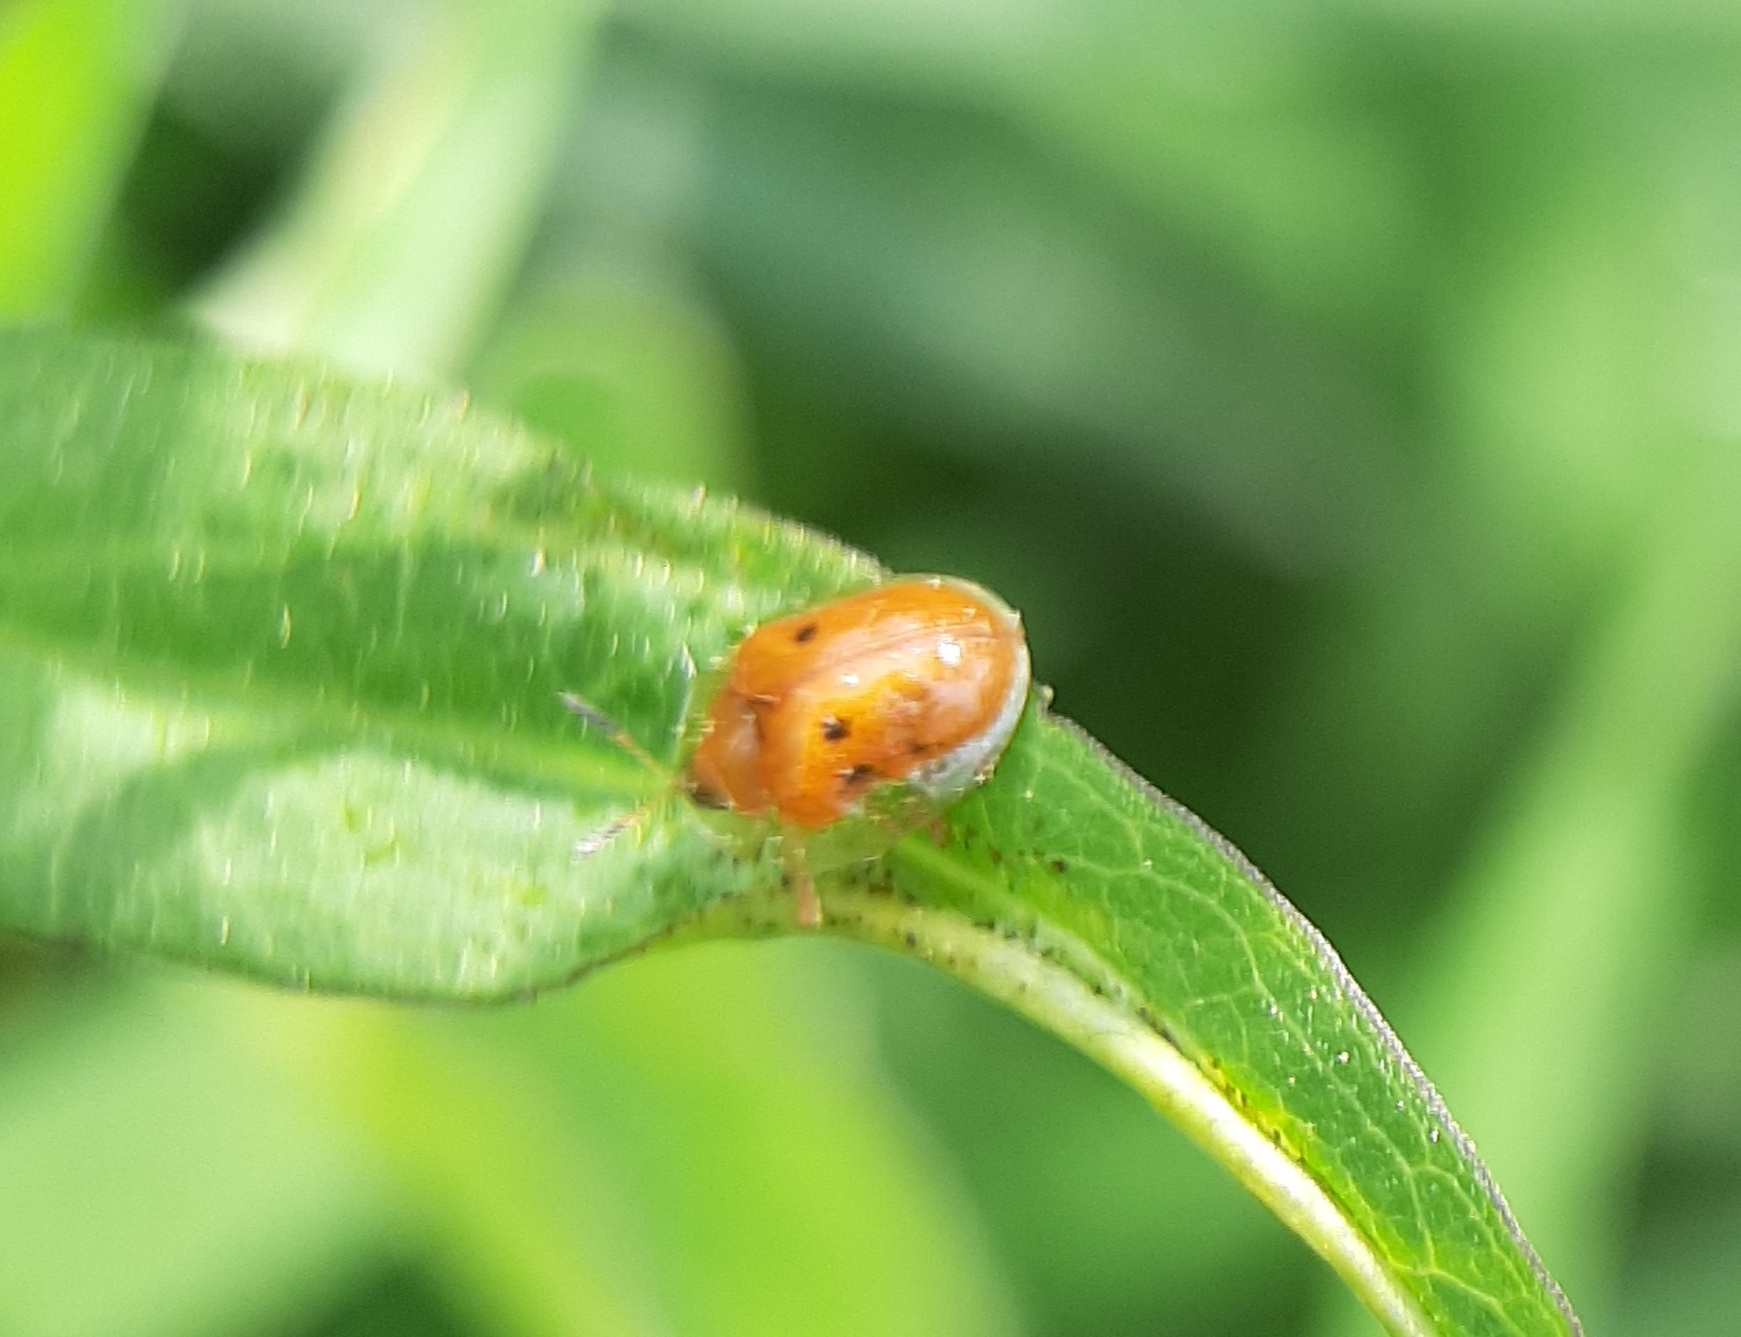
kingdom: Animalia
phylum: Arthropoda
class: Insecta
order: Coleoptera
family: Chrysomelidae
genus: Charidotella
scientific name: Charidotella sexpunctata
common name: Golden tortoise beetle
